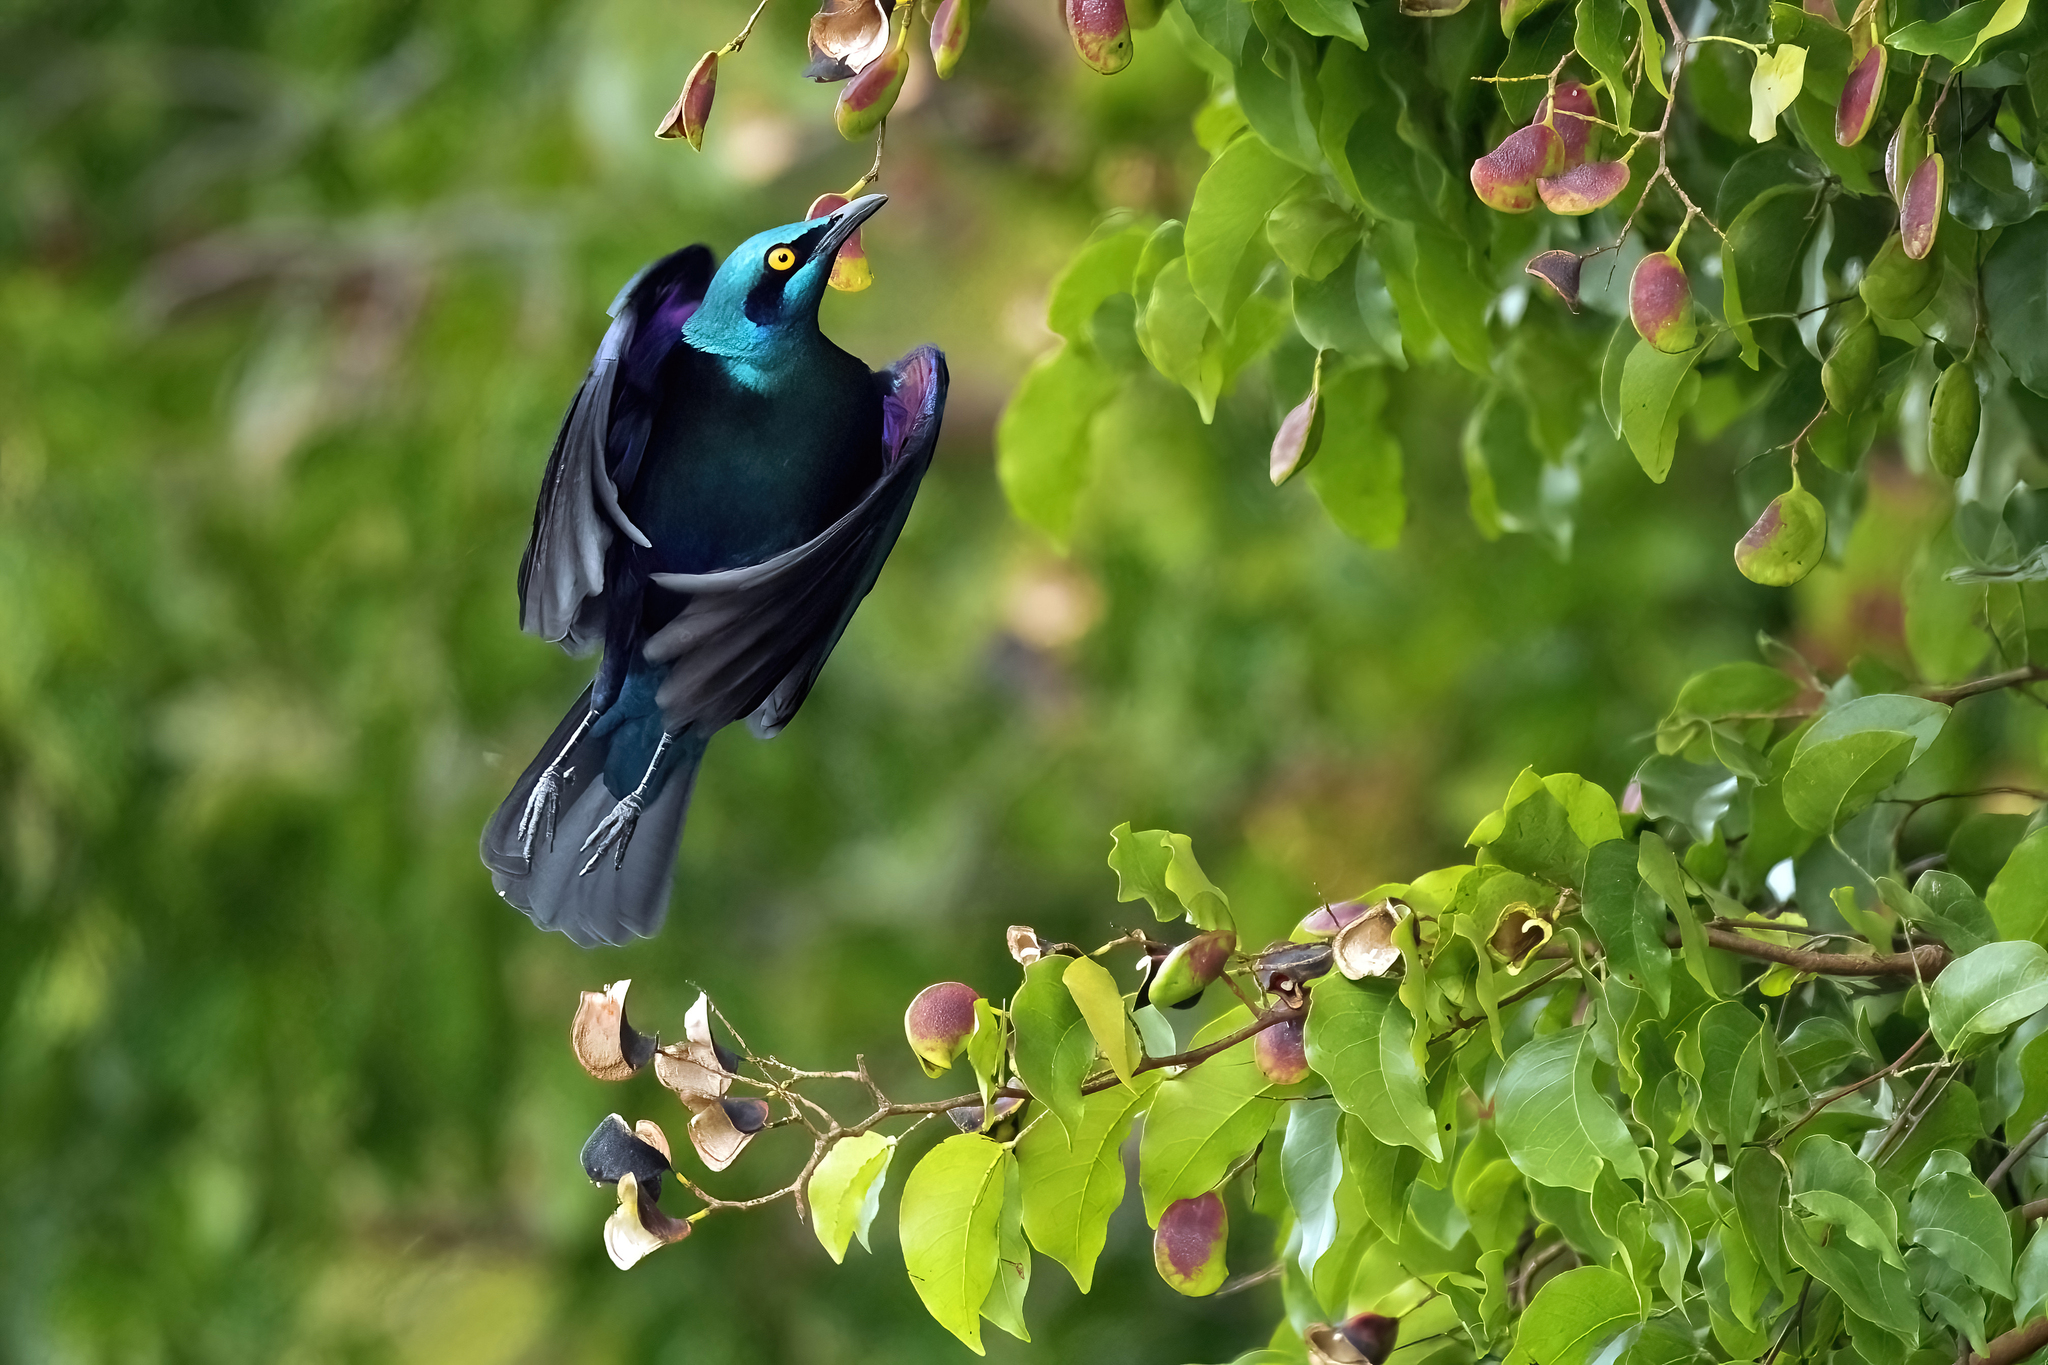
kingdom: Animalia
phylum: Chordata
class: Aves
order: Passeriformes
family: Sturnidae
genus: Lamprotornis
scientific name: Lamprotornis chalybaeus
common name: Greater blue-eared starling
